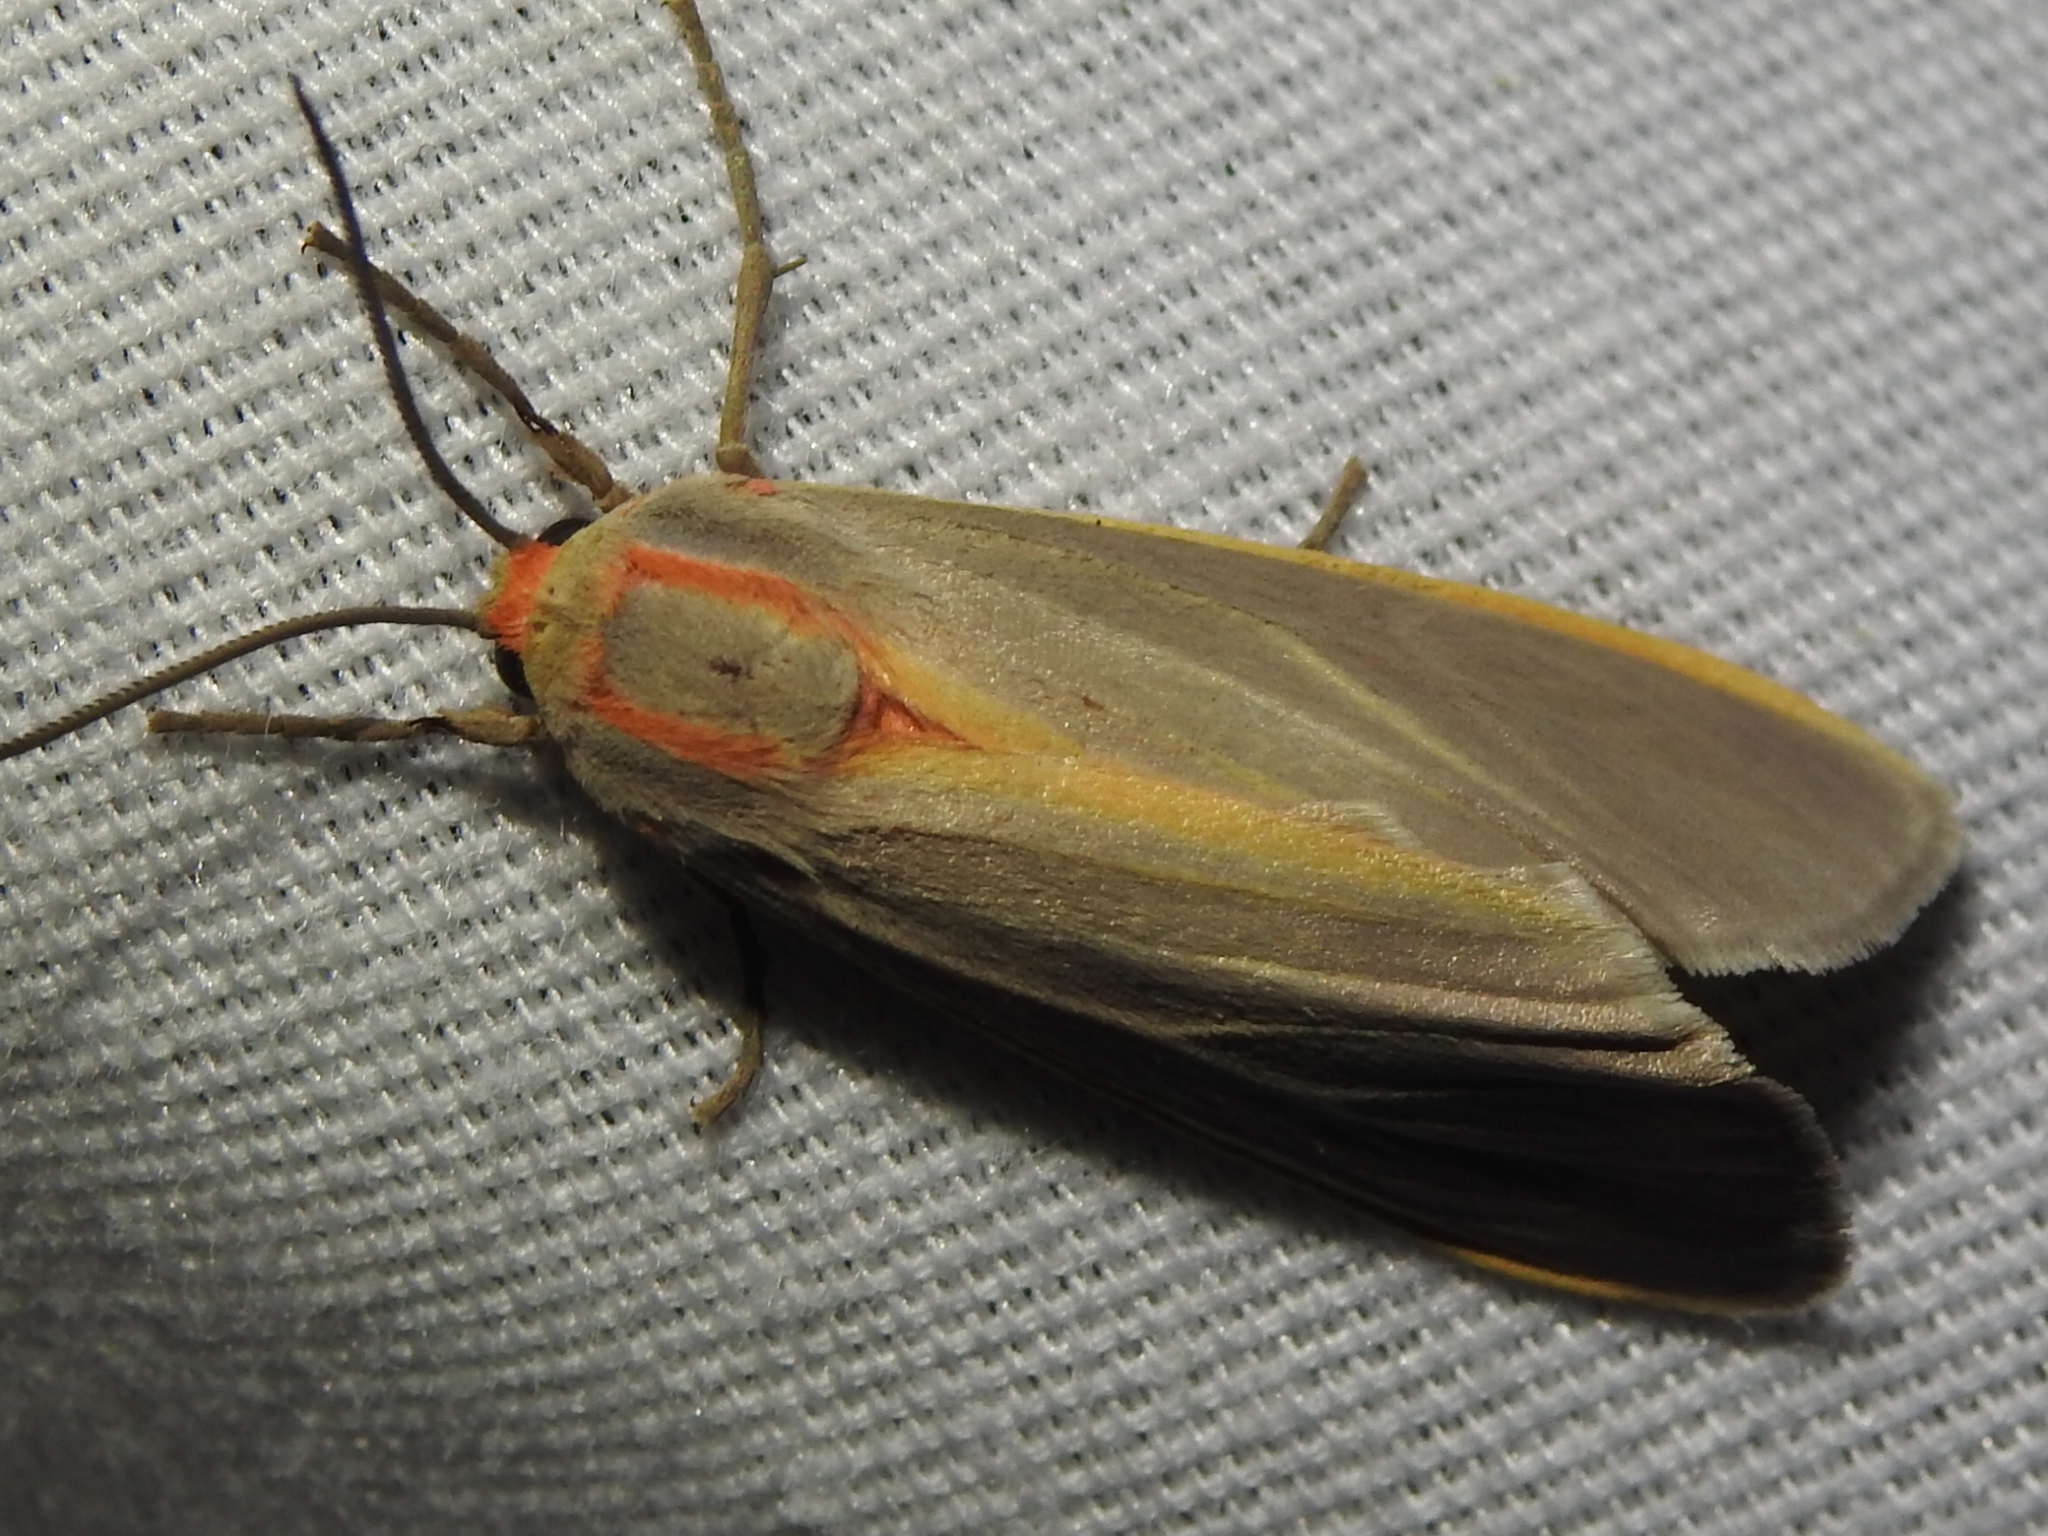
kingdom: Animalia
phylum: Arthropoda
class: Insecta
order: Lepidoptera
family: Erebidae
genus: Cisthene
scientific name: Cisthene plumbea
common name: Lead colored lichen moth
